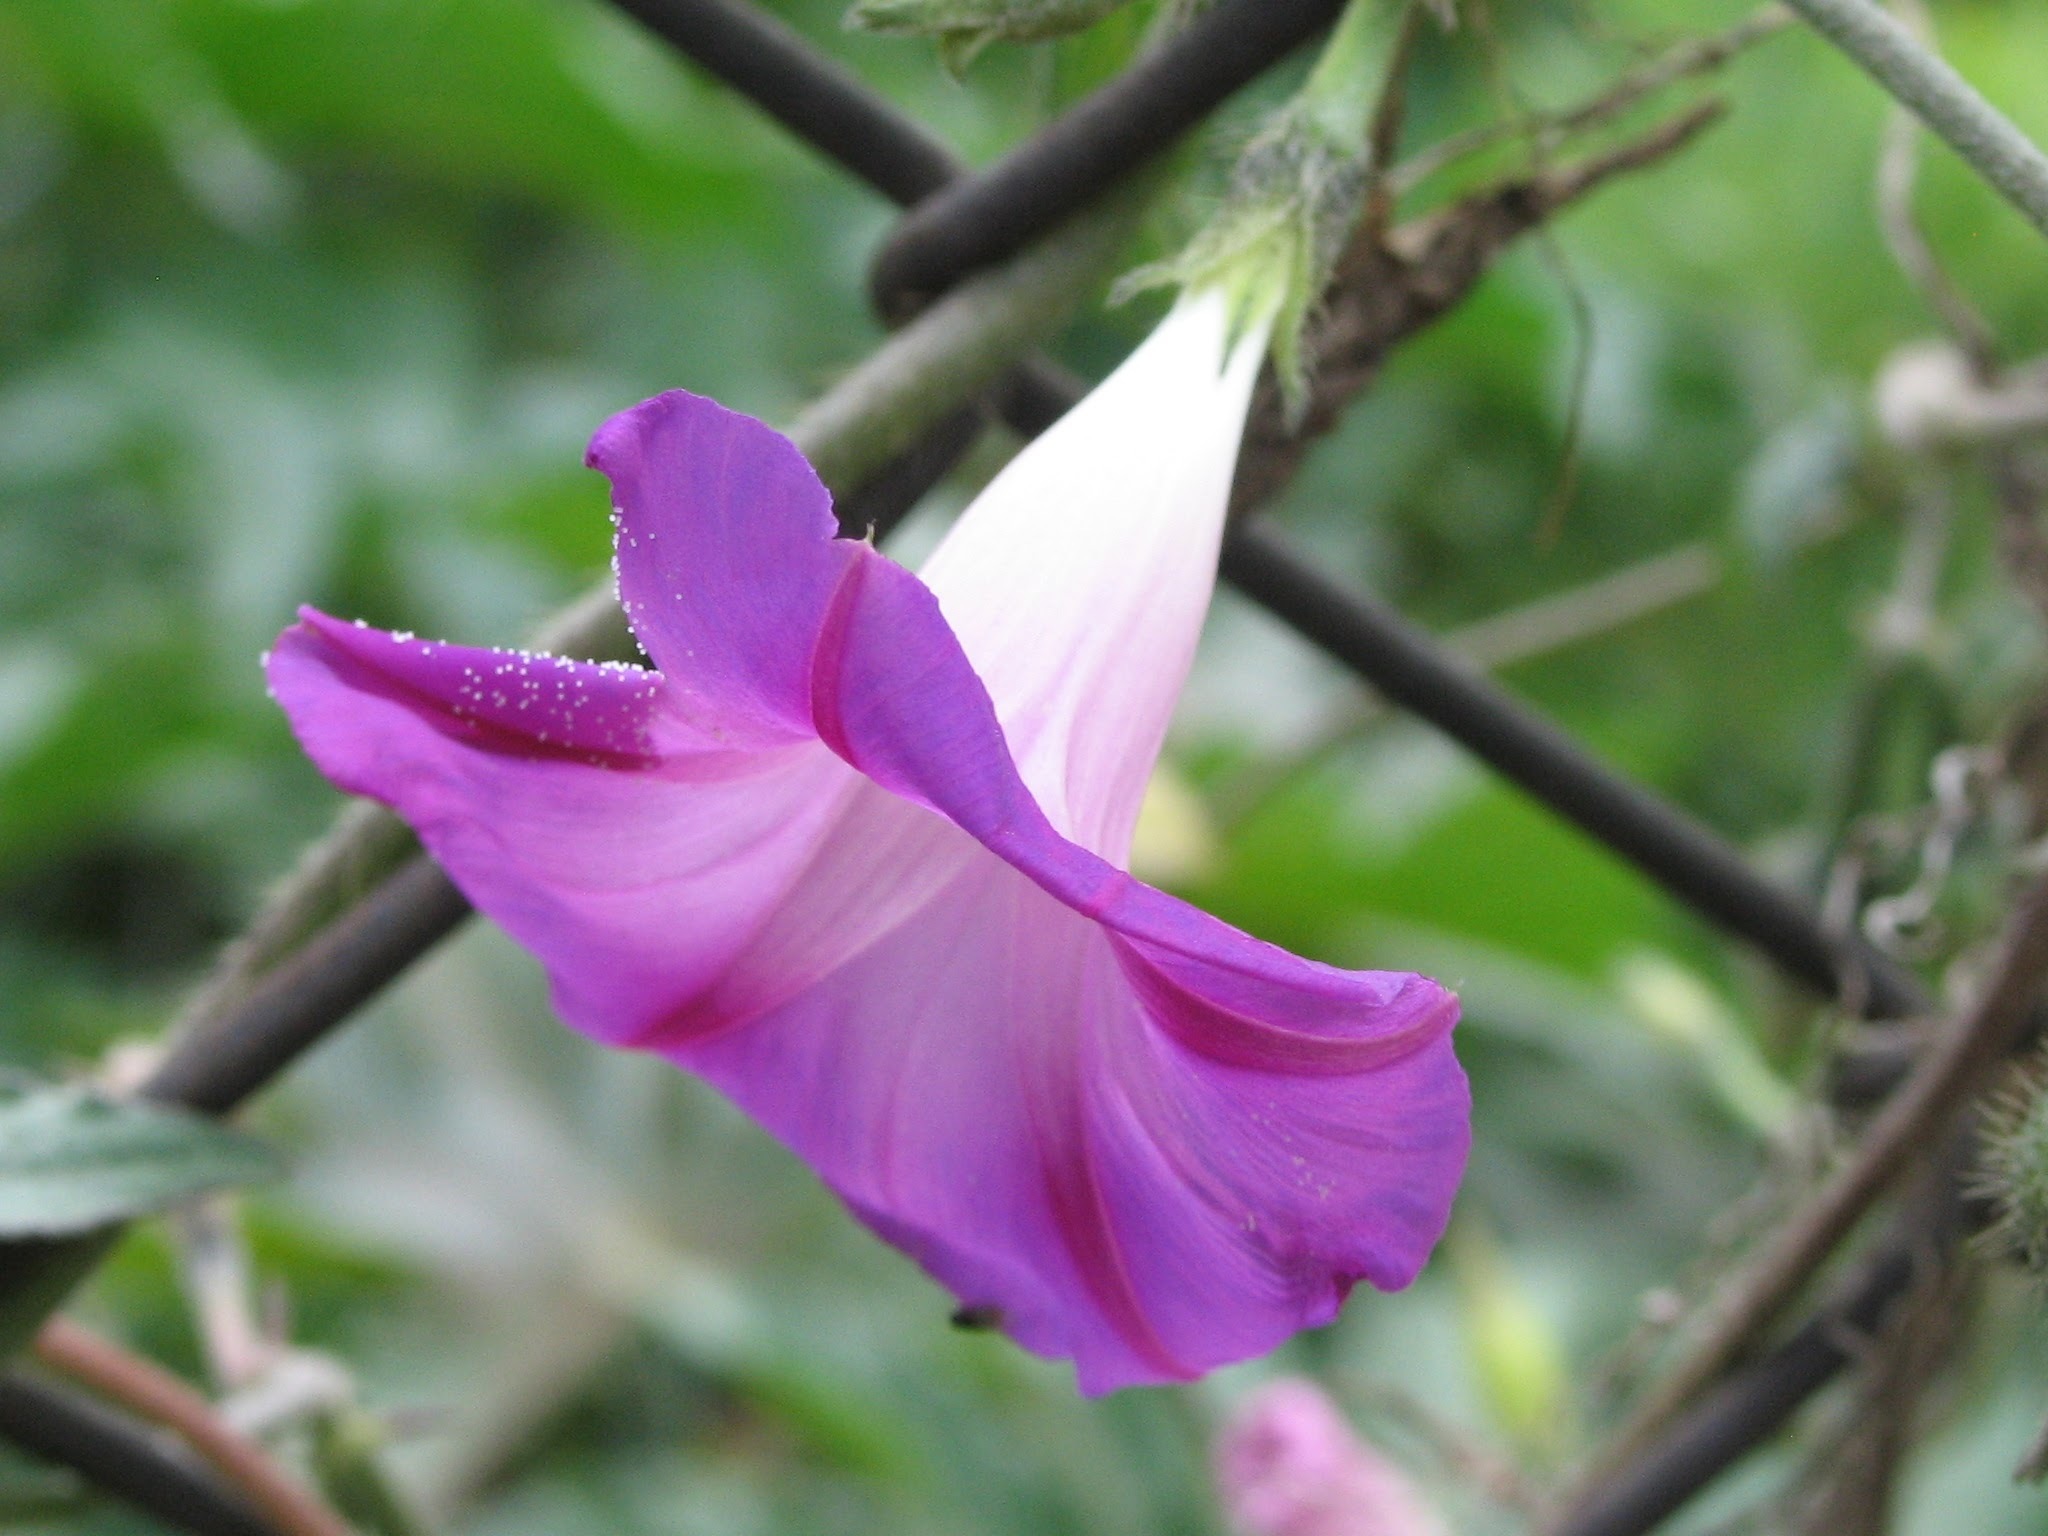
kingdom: Plantae
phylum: Tracheophyta
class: Magnoliopsida
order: Solanales
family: Convolvulaceae
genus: Ipomoea
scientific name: Ipomoea purpurea
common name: Common morning-glory
